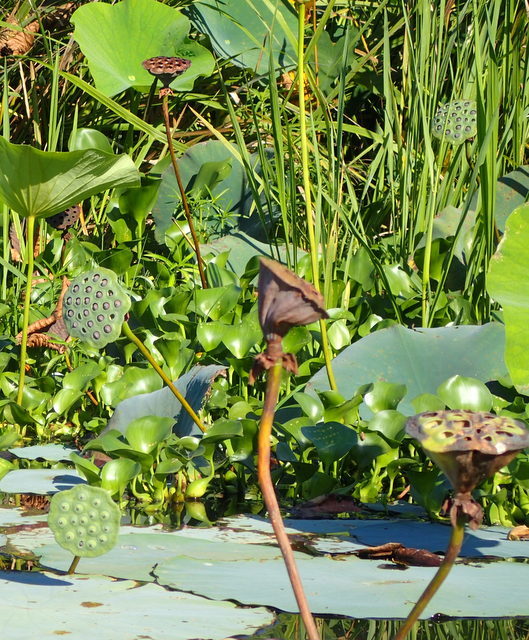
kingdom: Plantae
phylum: Tracheophyta
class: Magnoliopsida
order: Proteales
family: Nelumbonaceae
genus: Nelumbo
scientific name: Nelumbo lutea
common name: American lotus
